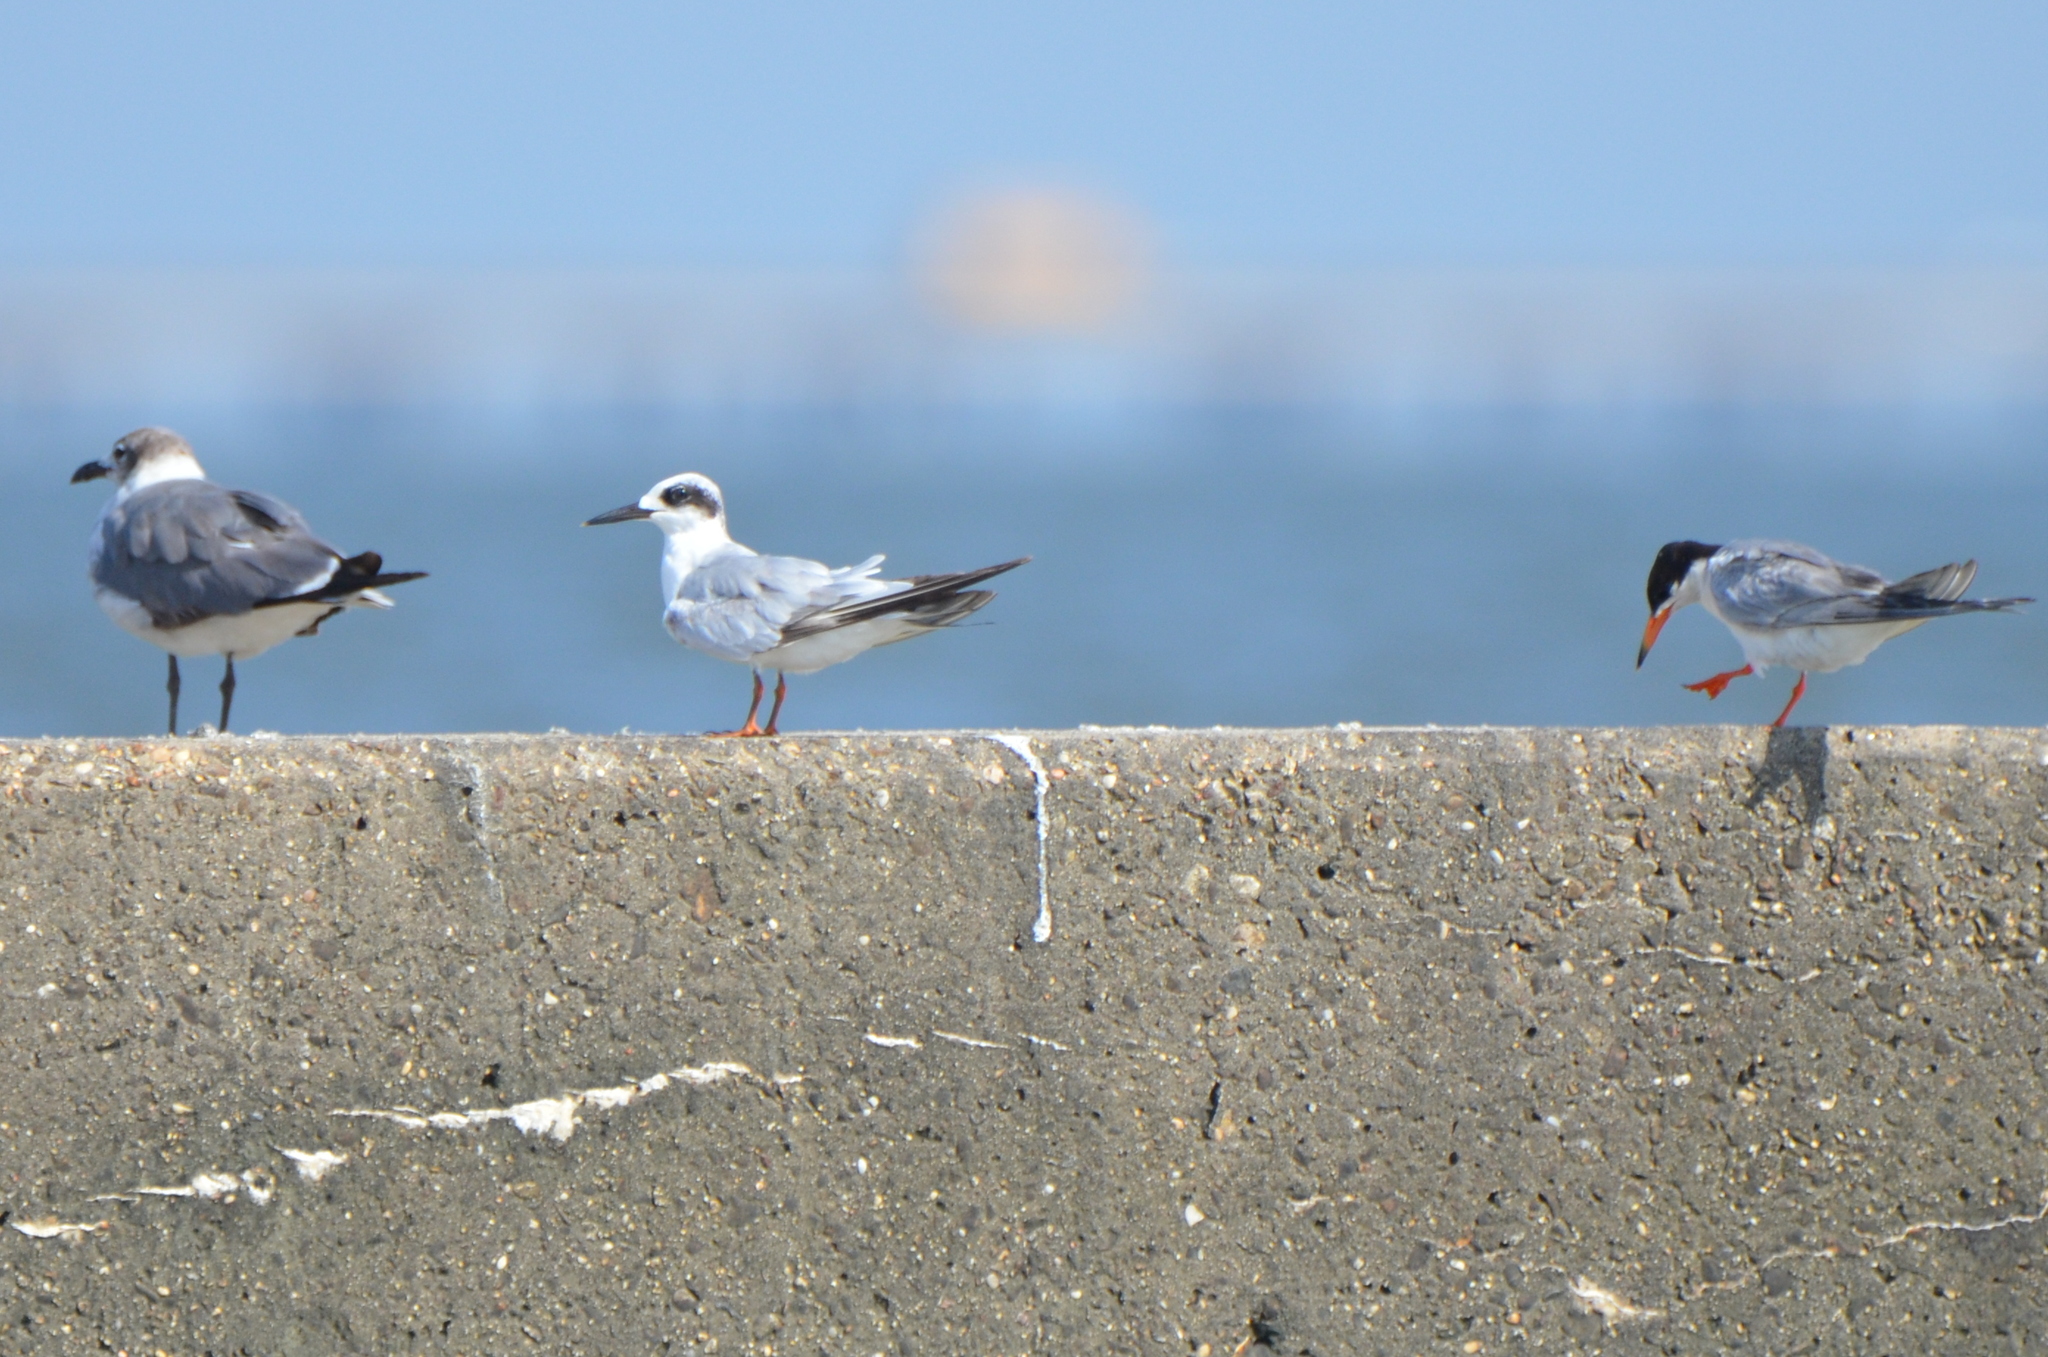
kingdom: Animalia
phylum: Chordata
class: Aves
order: Charadriiformes
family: Laridae
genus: Sterna
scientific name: Sterna forsteri
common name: Forster's tern
